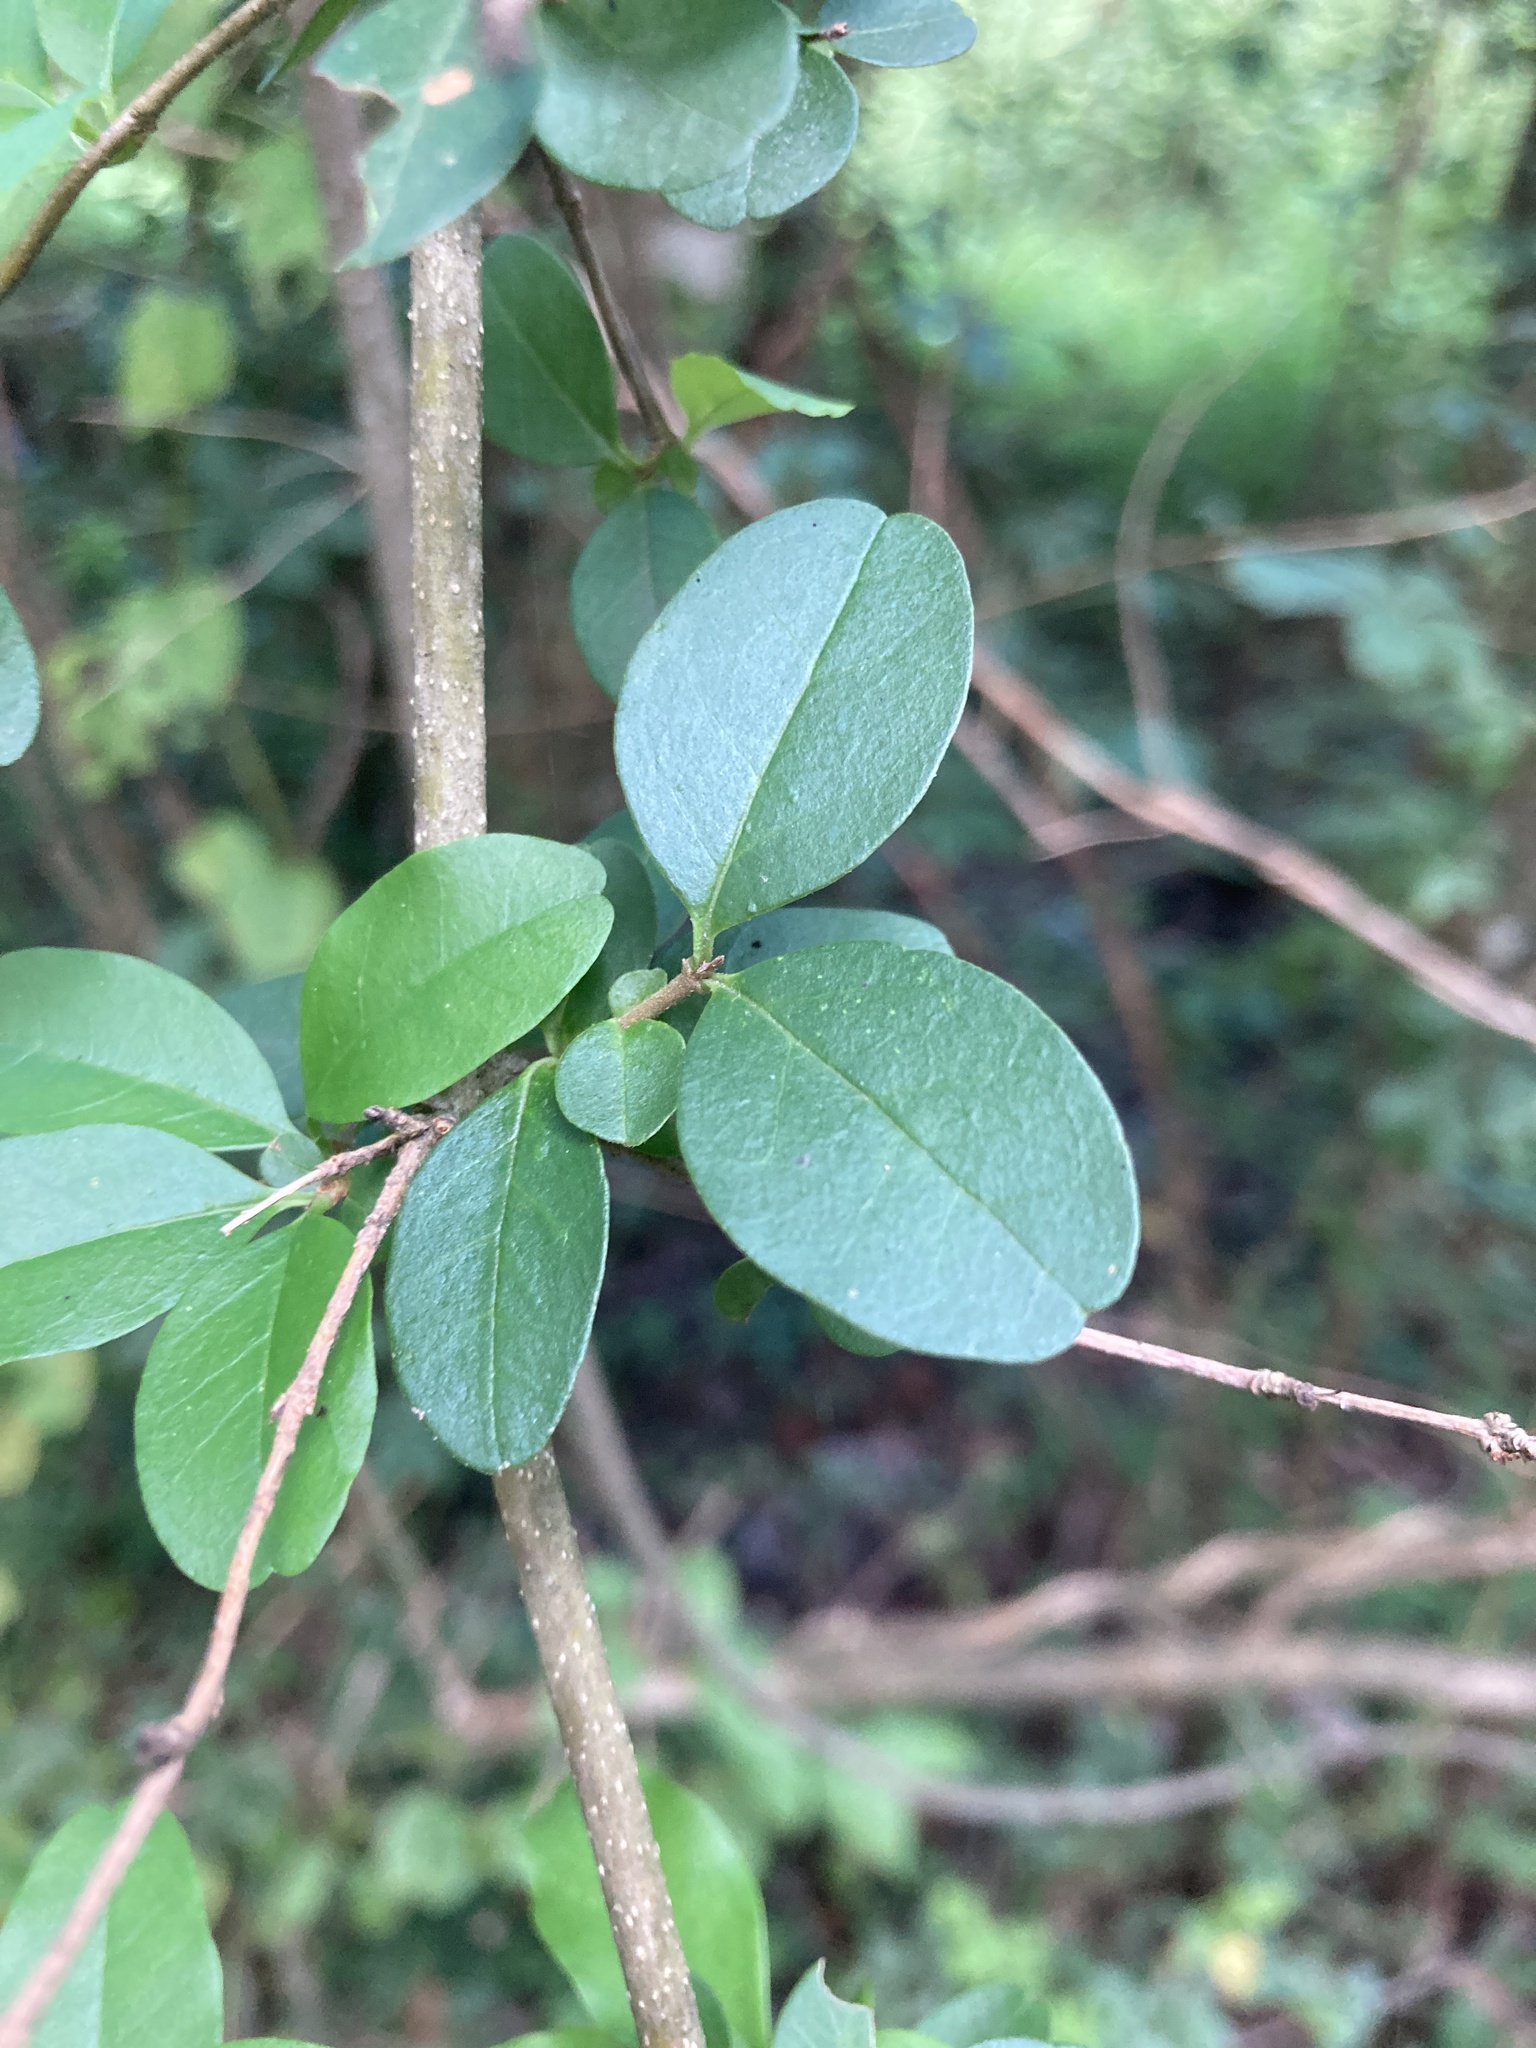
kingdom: Plantae
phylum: Tracheophyta
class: Magnoliopsida
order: Lamiales
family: Oleaceae
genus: Ligustrum
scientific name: Ligustrum sinense
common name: Chinese privet
